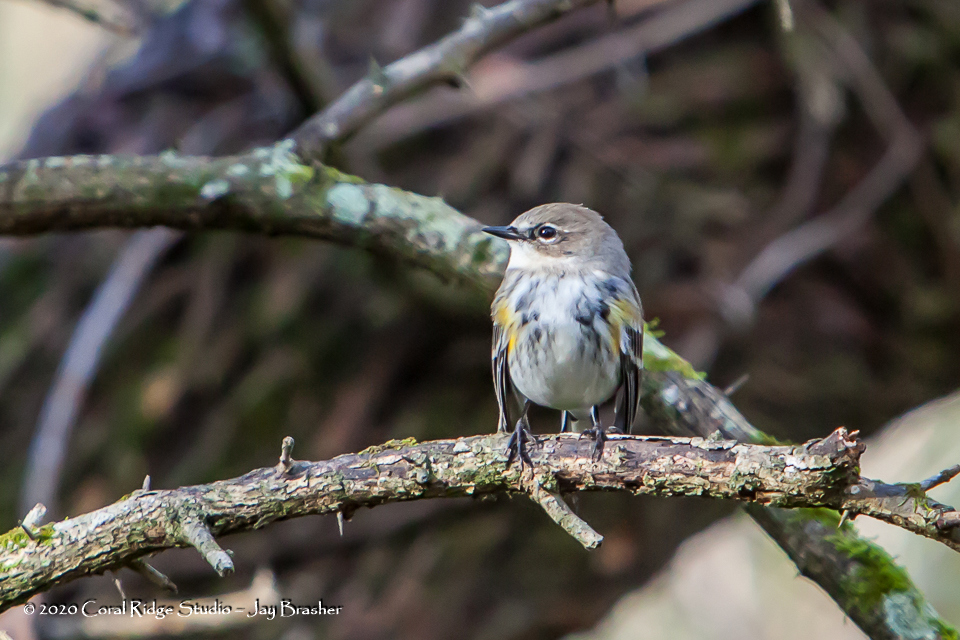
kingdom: Animalia
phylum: Chordata
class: Aves
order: Passeriformes
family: Parulidae
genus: Setophaga
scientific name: Setophaga coronata
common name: Myrtle warbler
